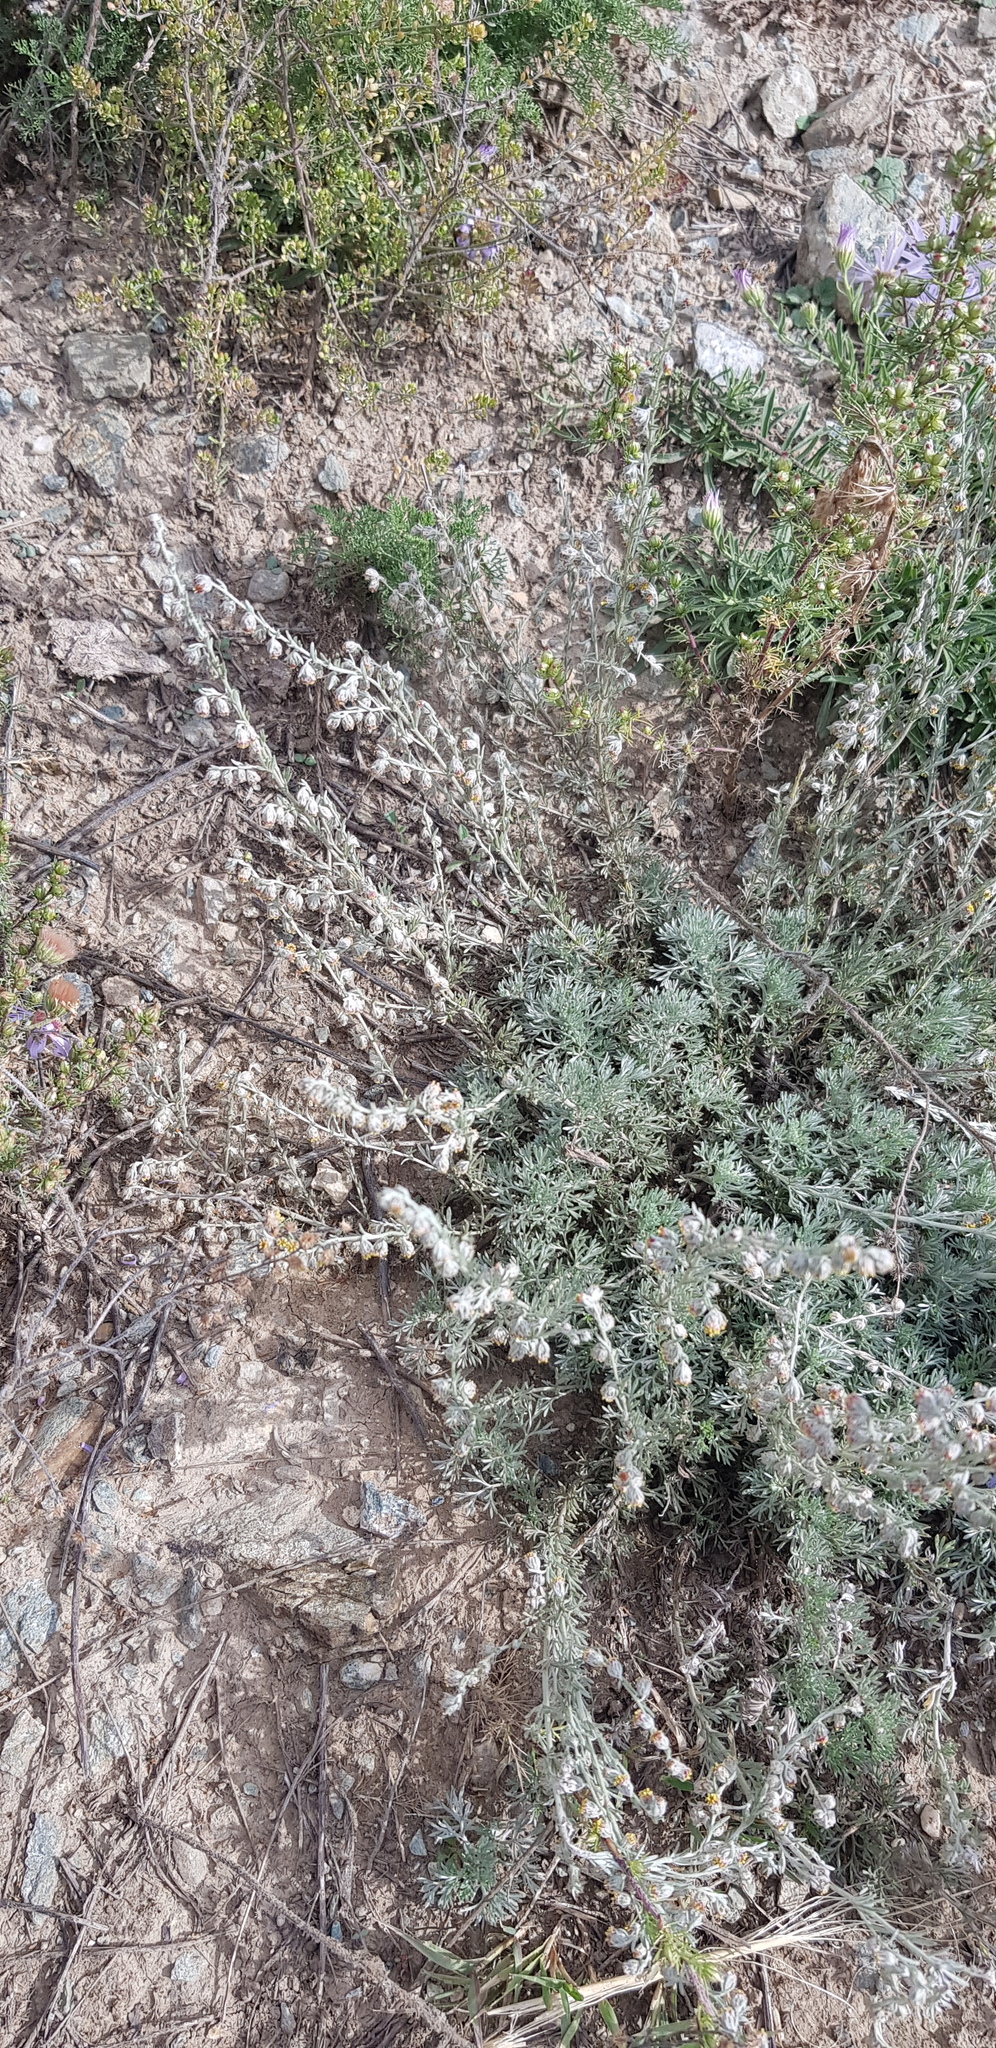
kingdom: Plantae
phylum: Tracheophyta
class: Magnoliopsida
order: Asterales
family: Asteraceae
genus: Artemisia
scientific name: Artemisia frigida
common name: Prairie sagewort
